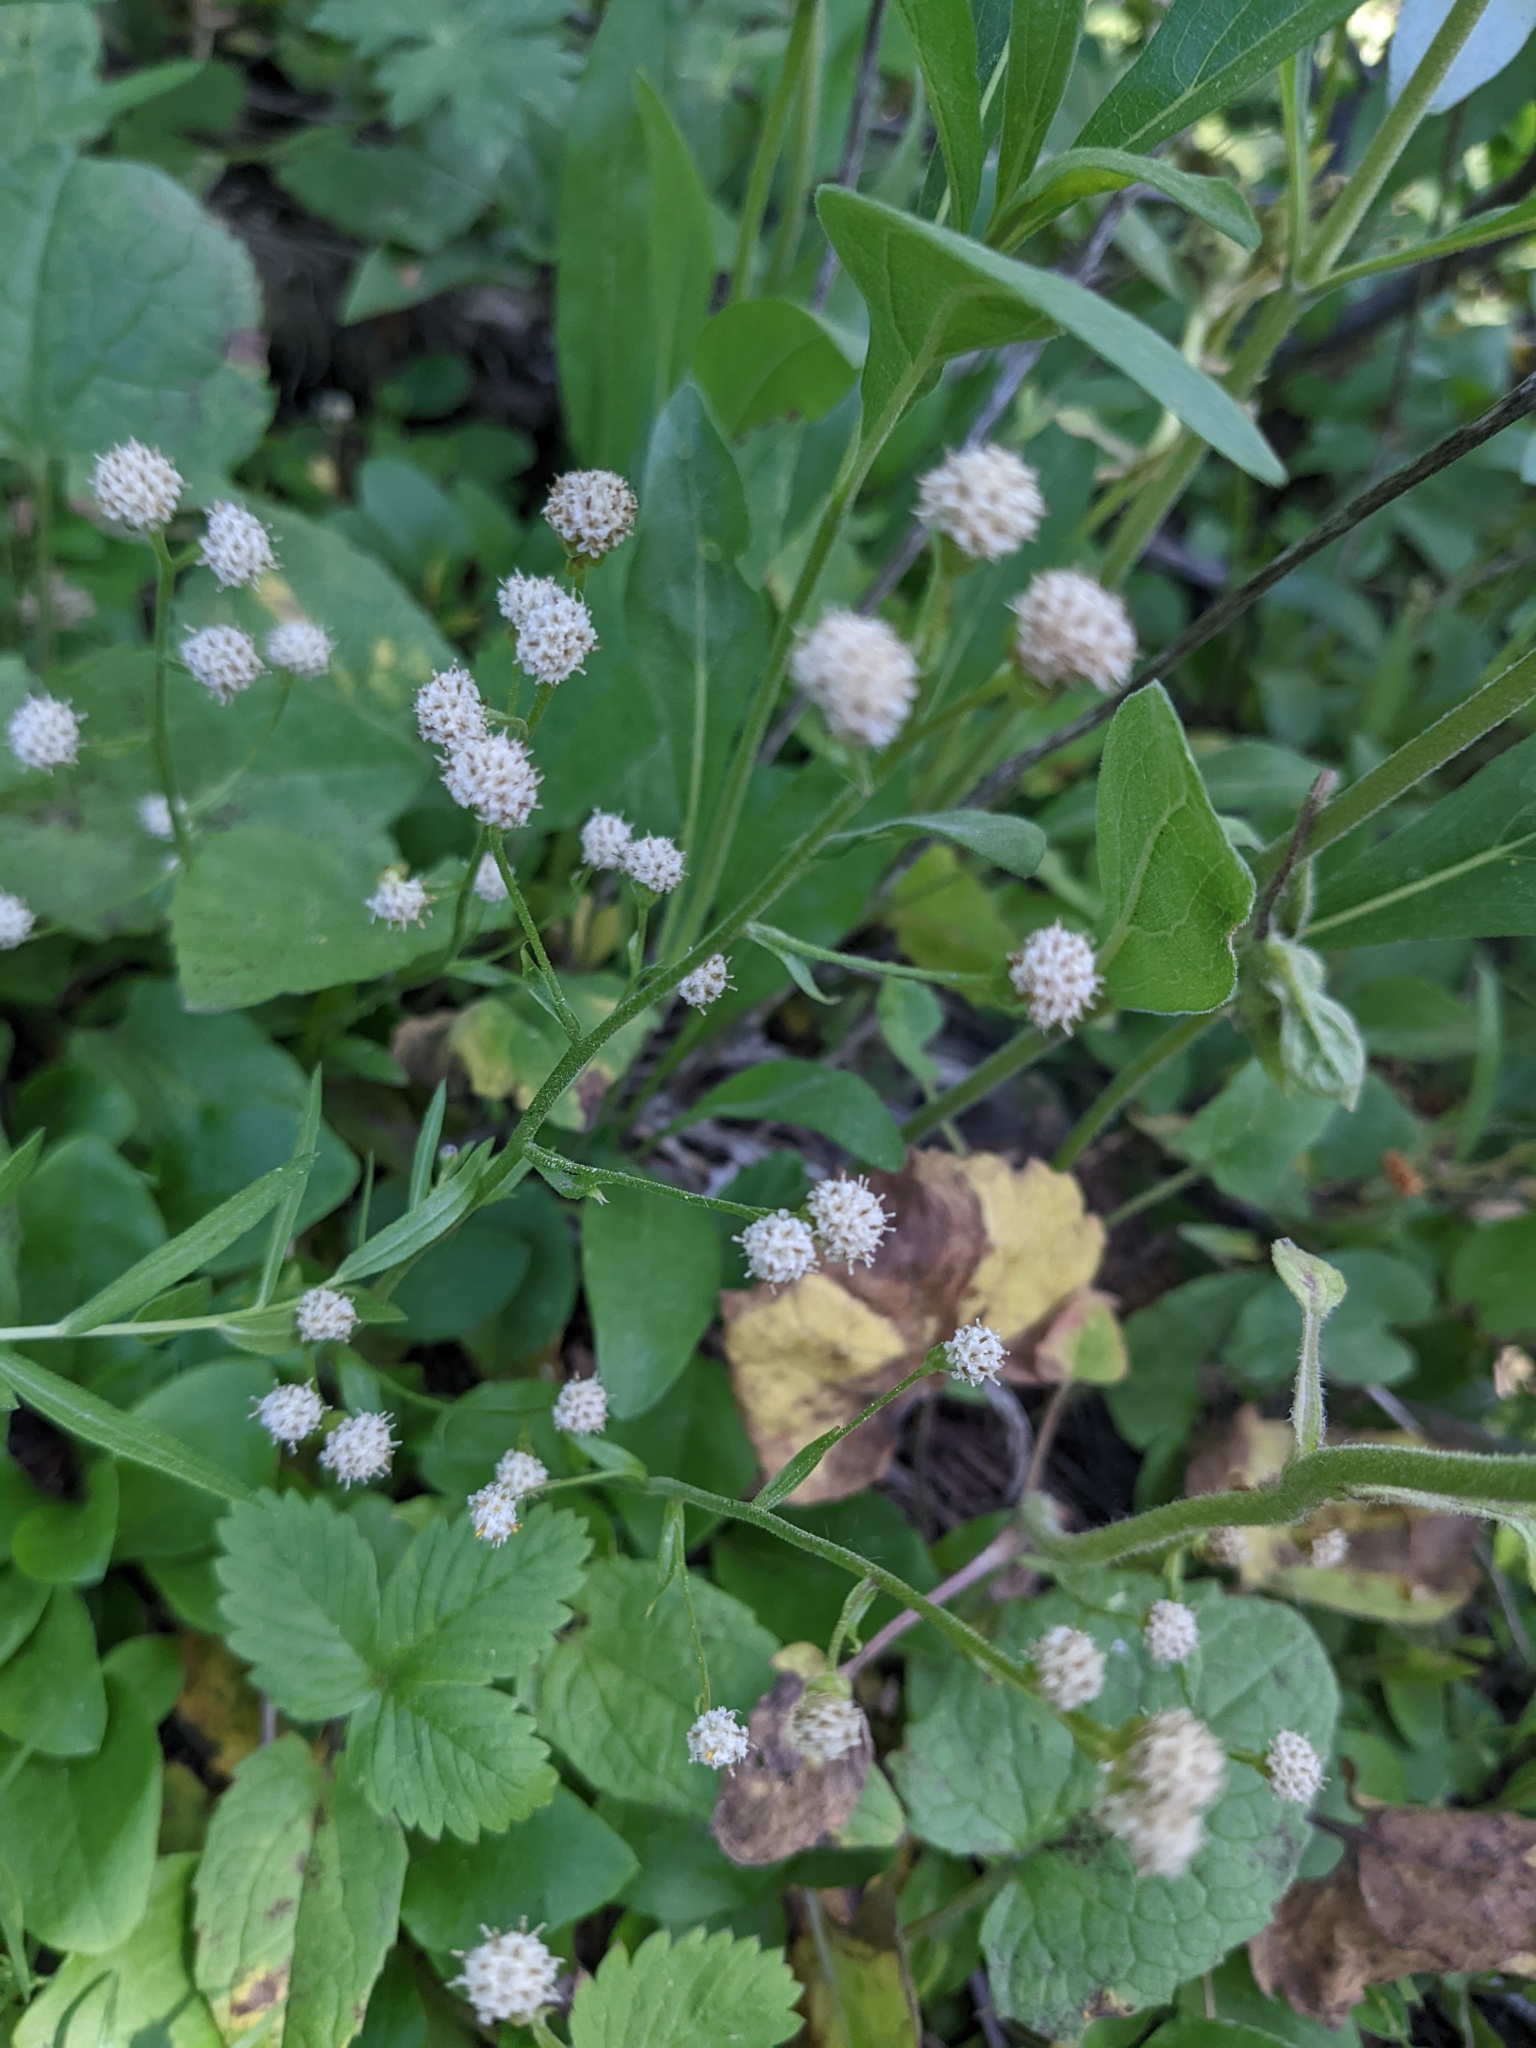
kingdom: Plantae
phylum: Tracheophyta
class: Magnoliopsida
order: Asterales
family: Asteraceae
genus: Antennaria
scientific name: Antennaria racemosa
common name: Racemose pussytoes
